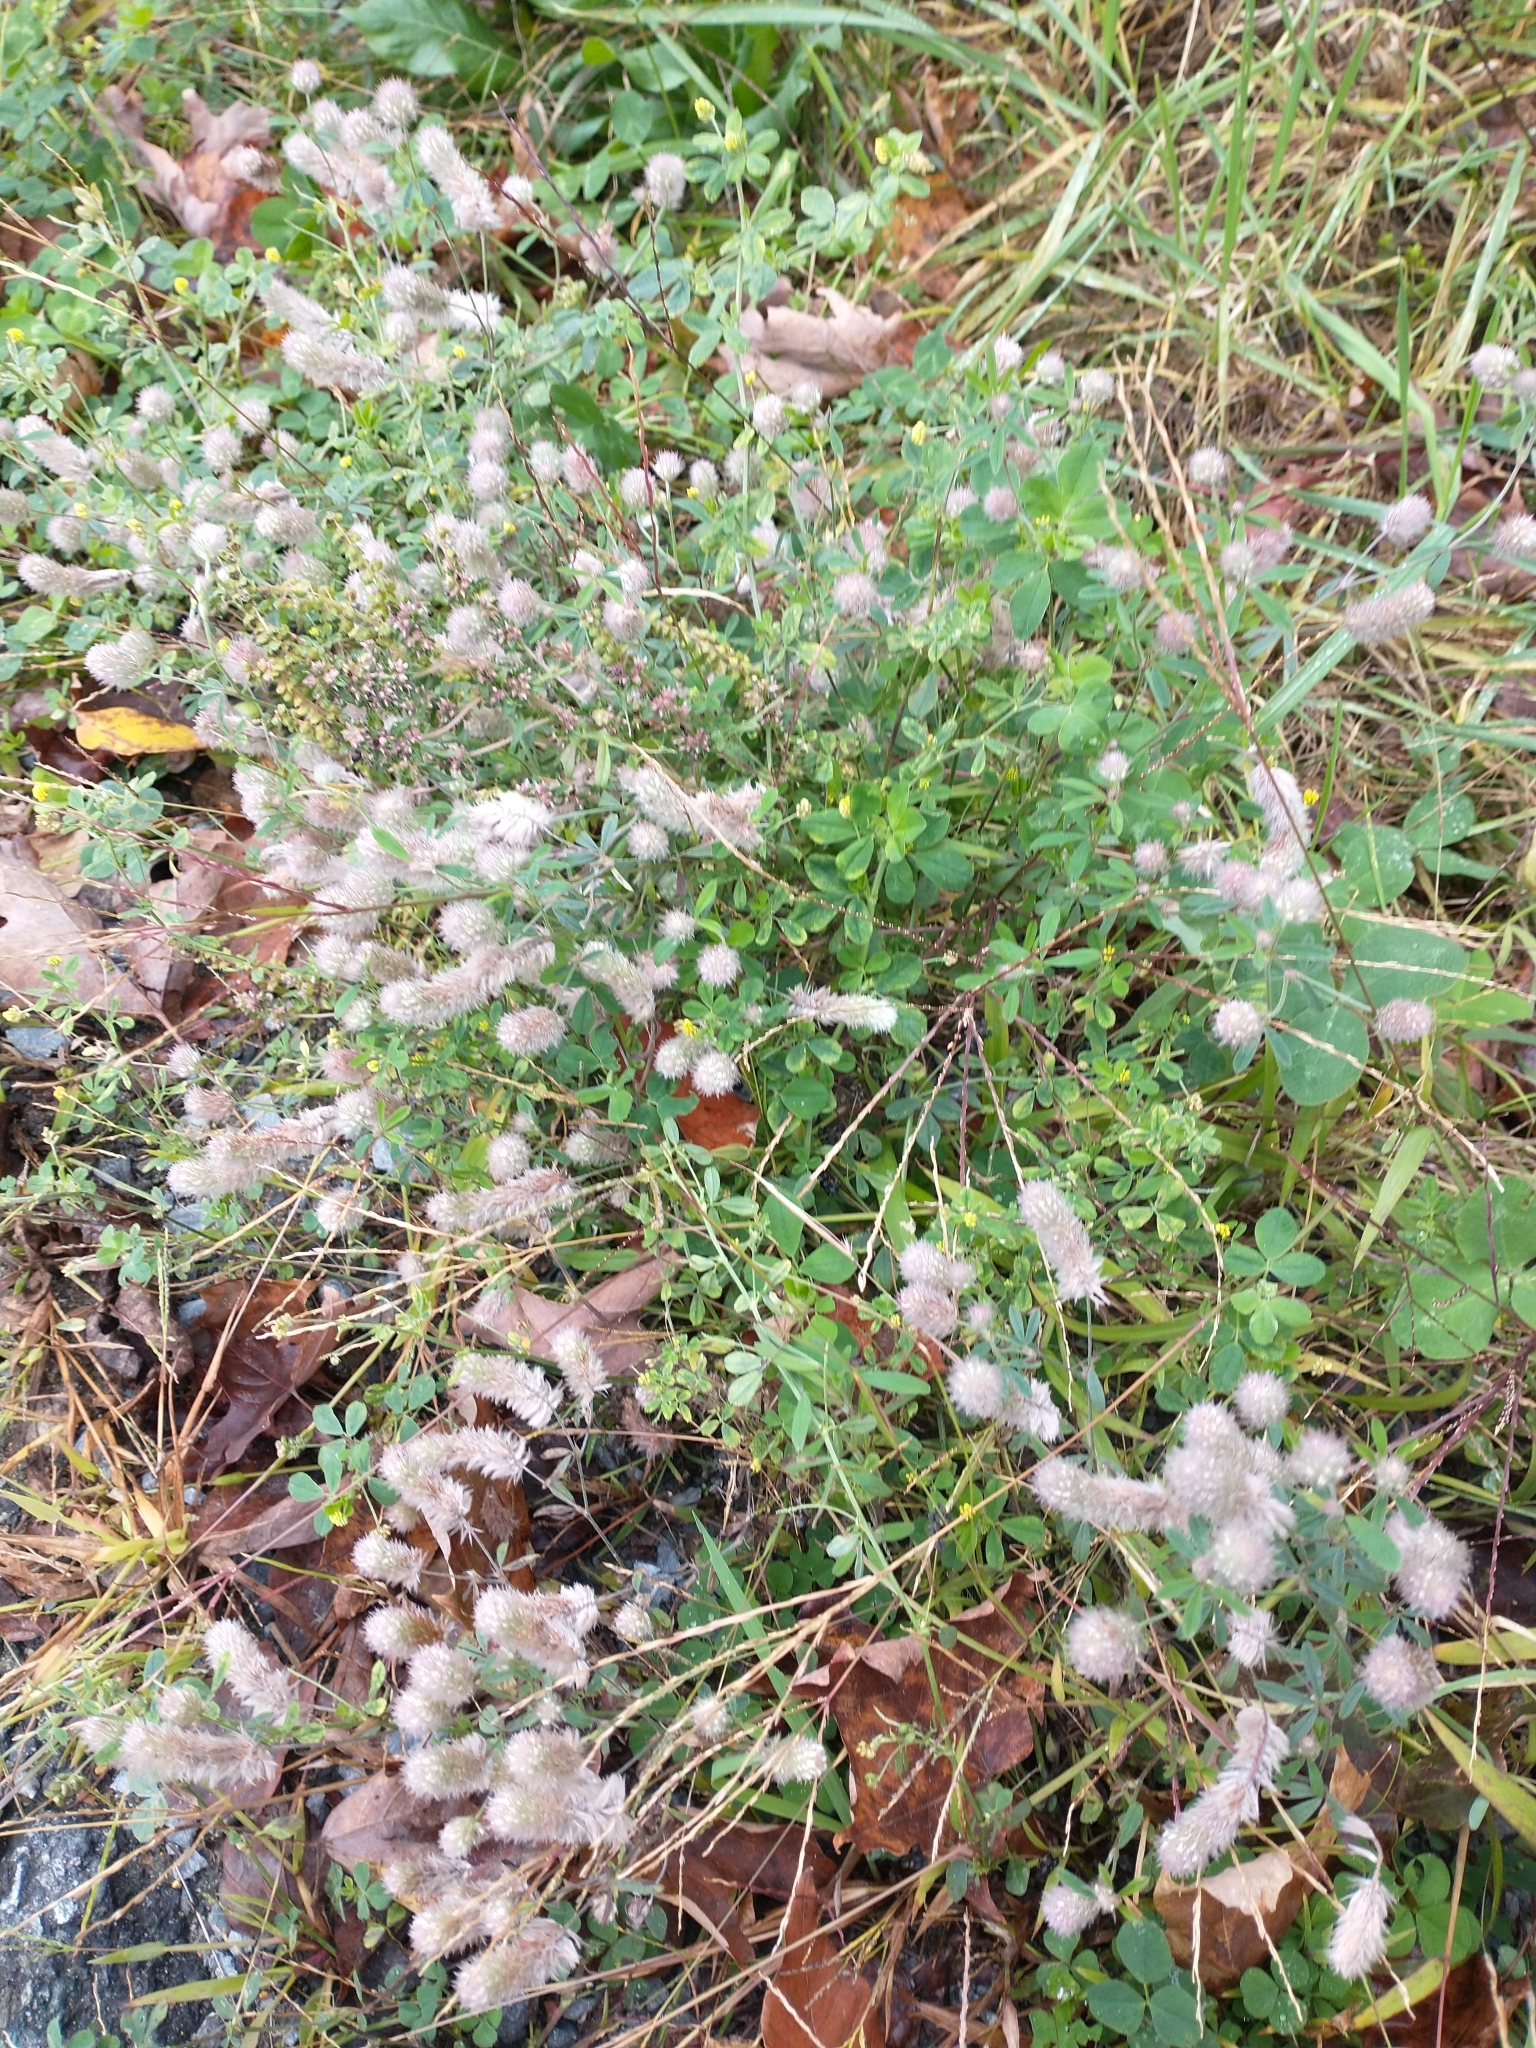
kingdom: Plantae
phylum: Tracheophyta
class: Magnoliopsida
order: Fabales
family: Fabaceae
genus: Trifolium
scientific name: Trifolium arvense
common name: Hare's-foot clover
